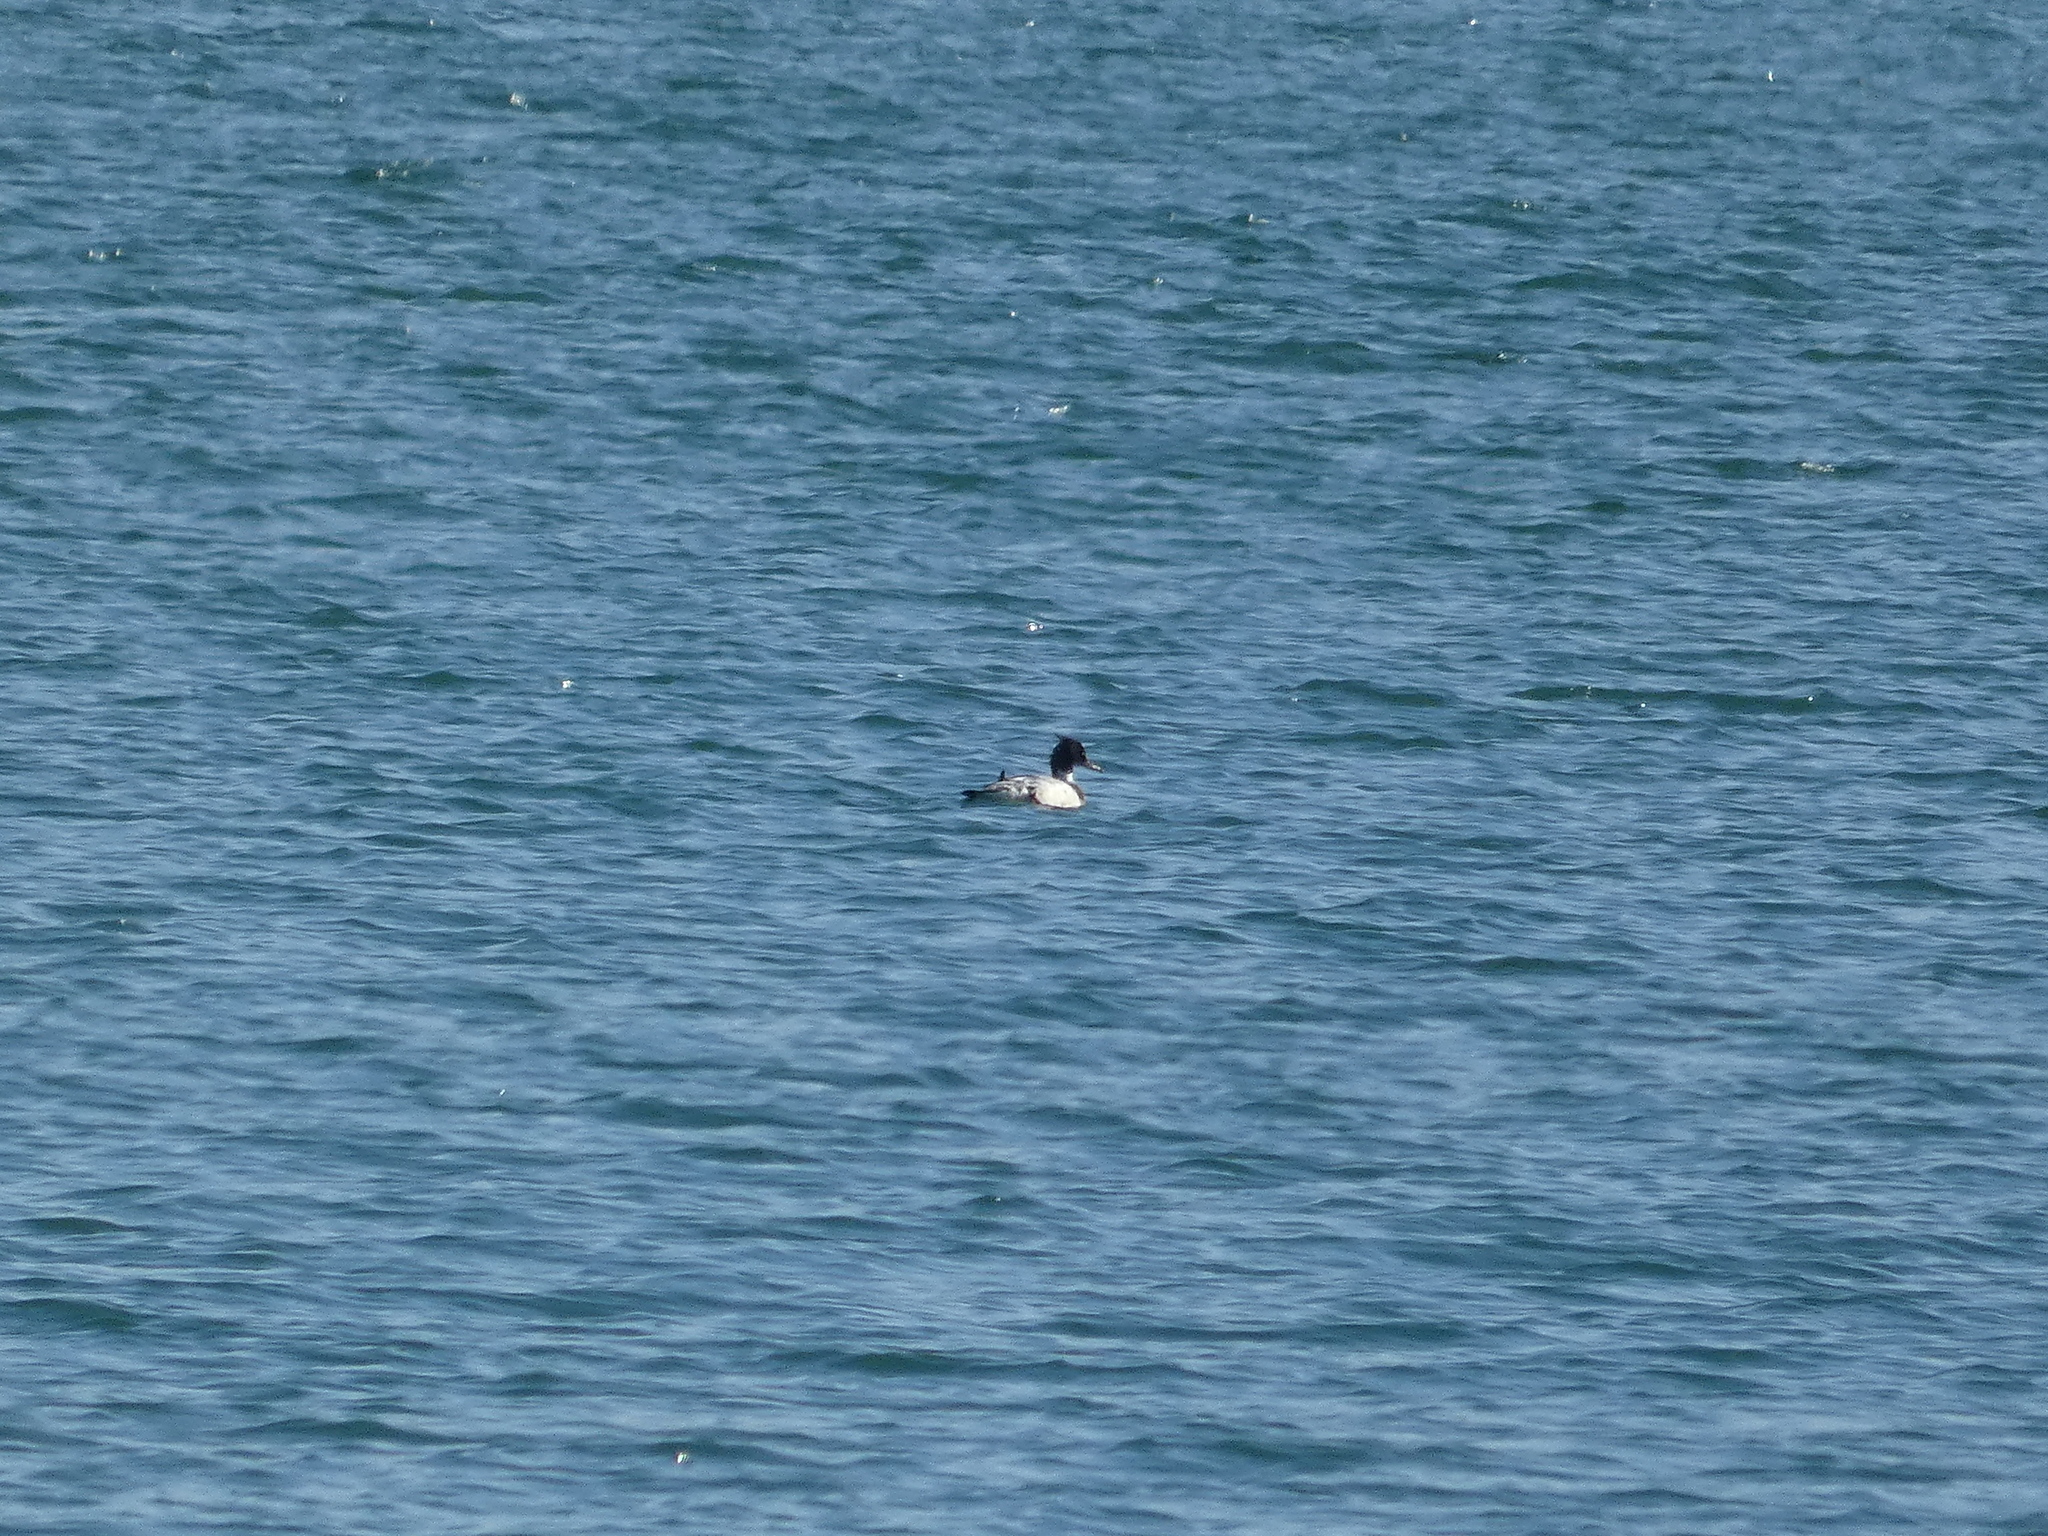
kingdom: Animalia
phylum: Chordata
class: Aves
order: Anseriformes
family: Anatidae
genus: Mergus
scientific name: Mergus serrator
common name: Red-breasted merganser
